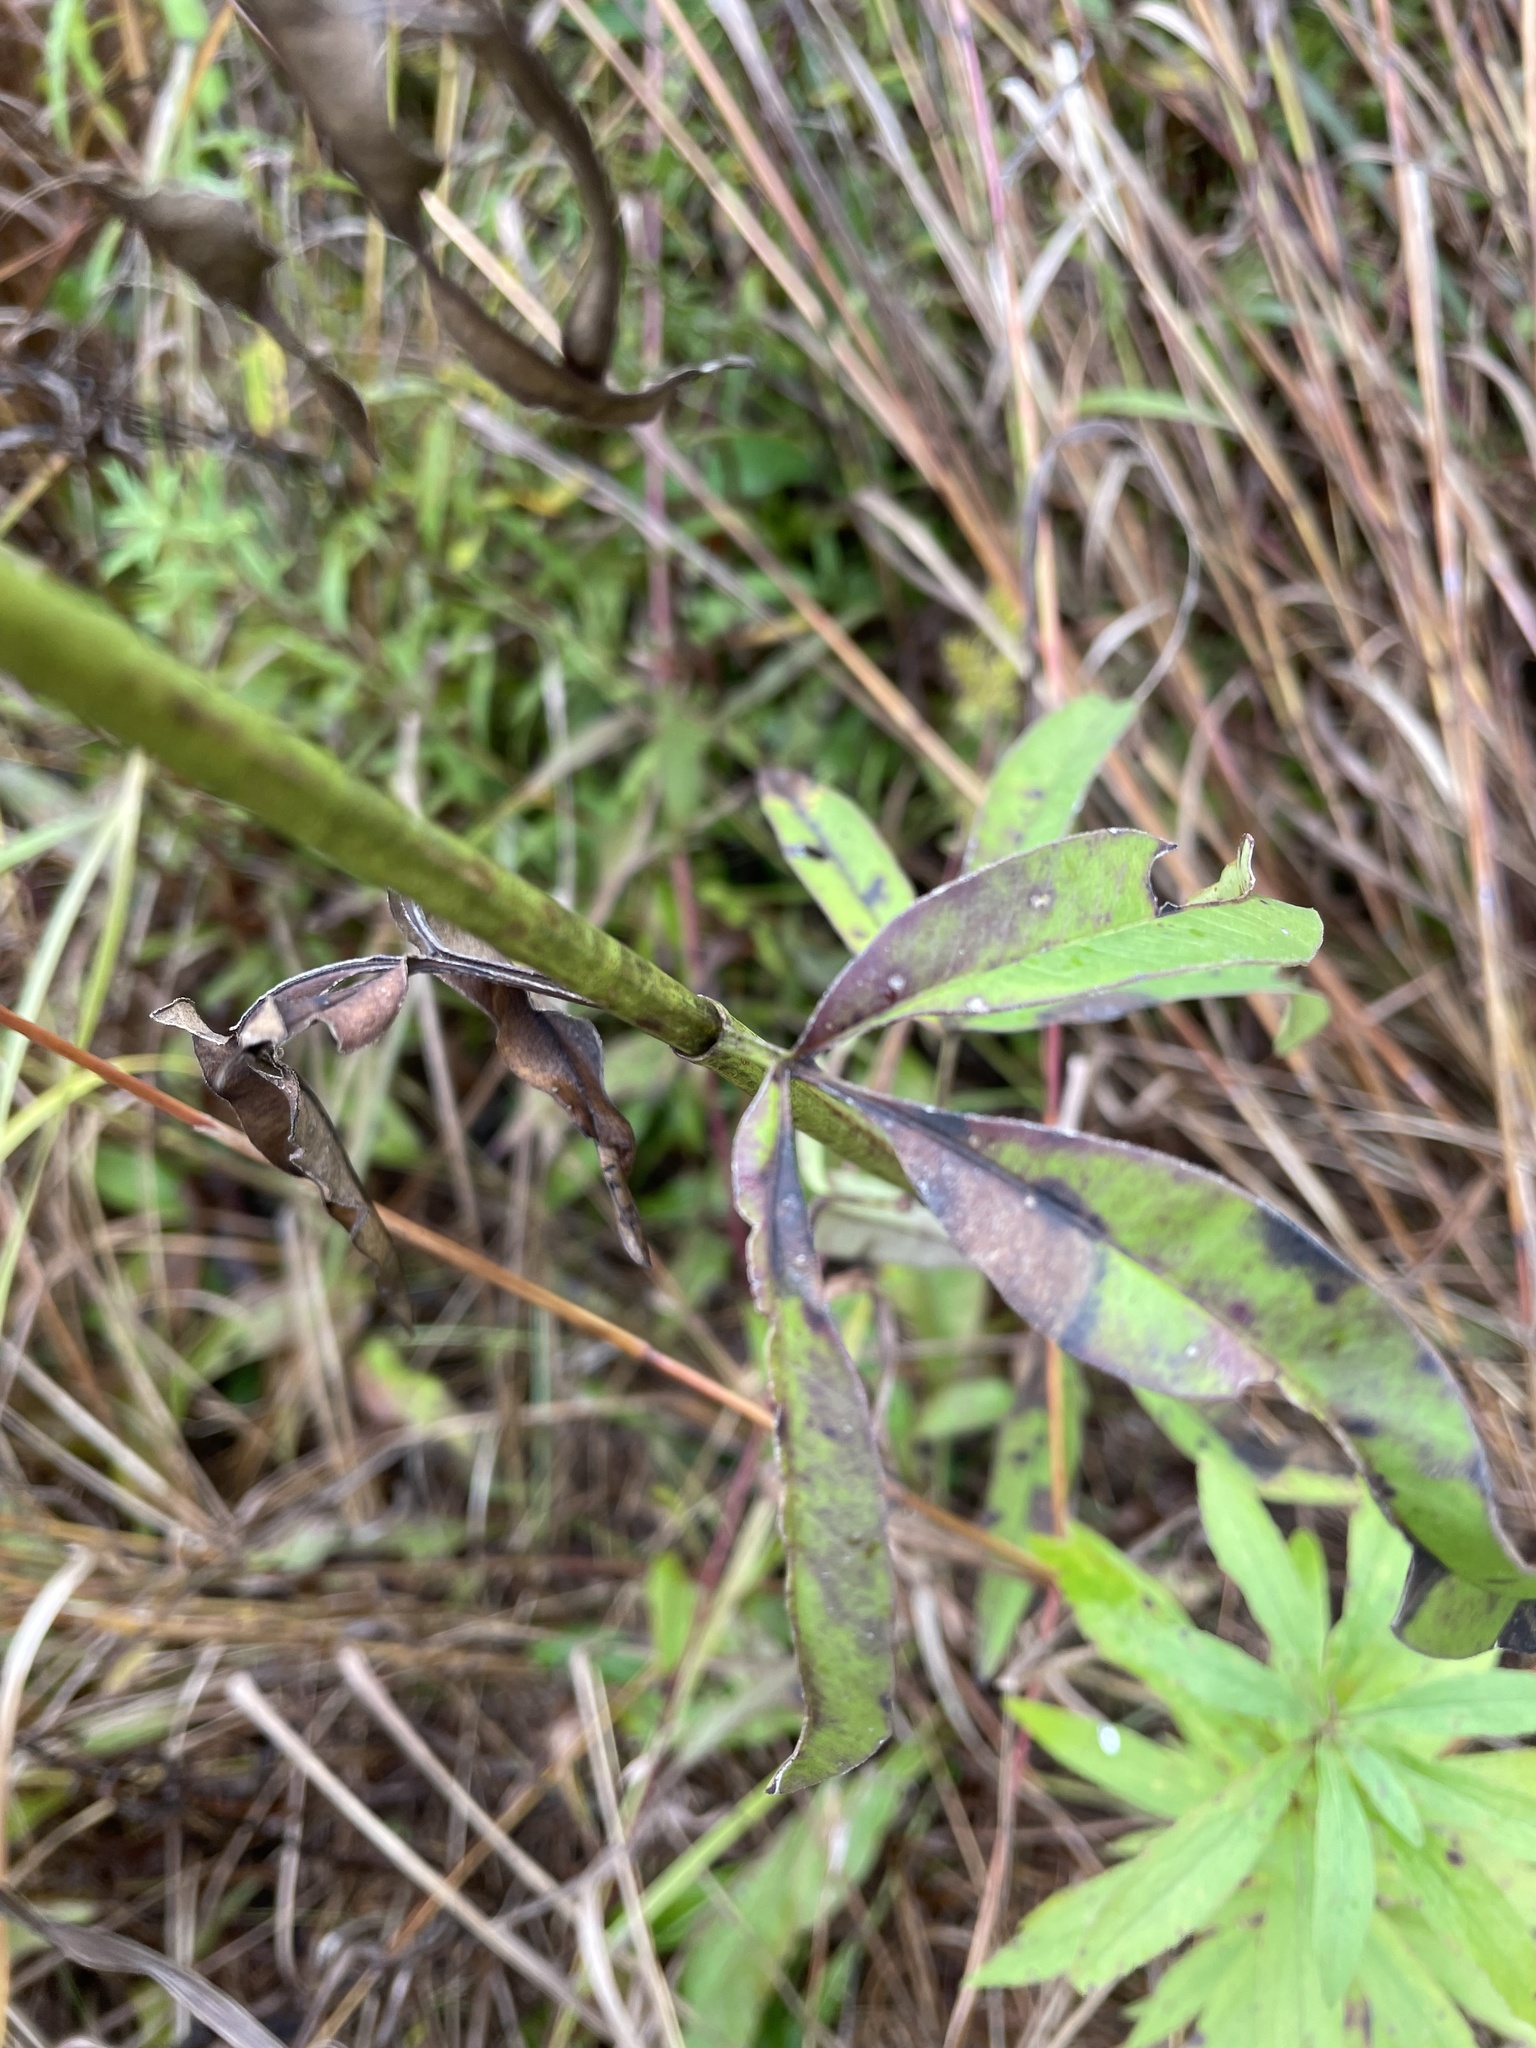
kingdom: Plantae
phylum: Tracheophyta
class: Magnoliopsida
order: Asterales
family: Asteraceae
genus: Coreopsis
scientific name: Coreopsis tripteris
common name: Tall coreopsis
